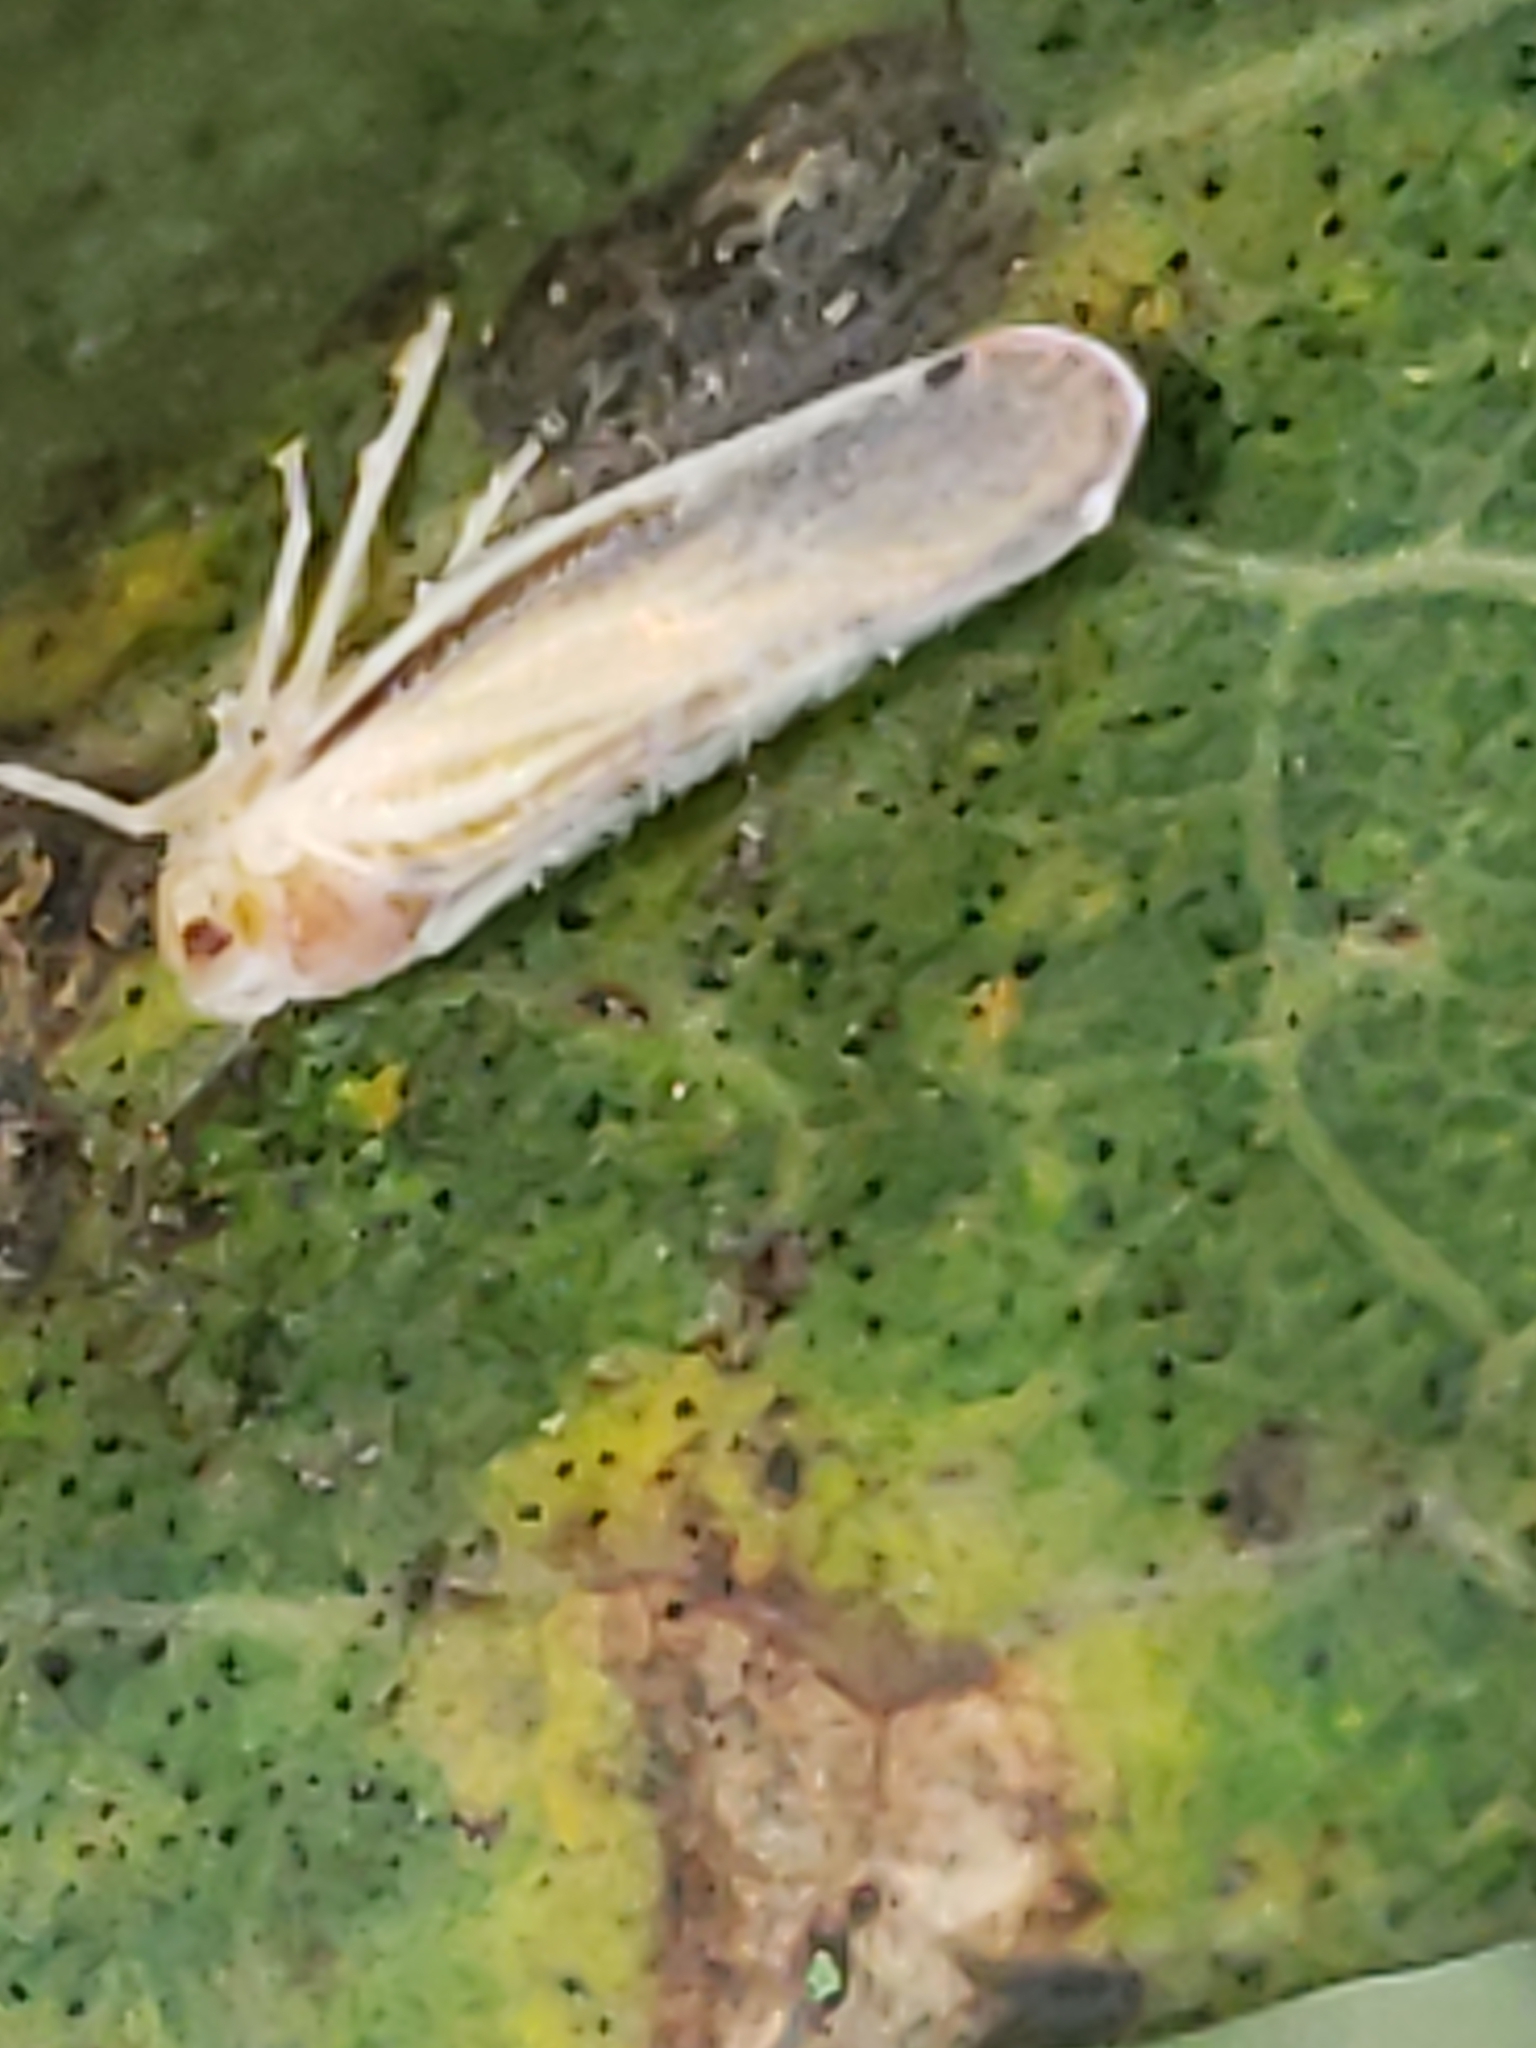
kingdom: Animalia
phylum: Arthropoda
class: Insecta
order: Hemiptera
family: Derbidae
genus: Omolicna
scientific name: Omolicna uhleri
